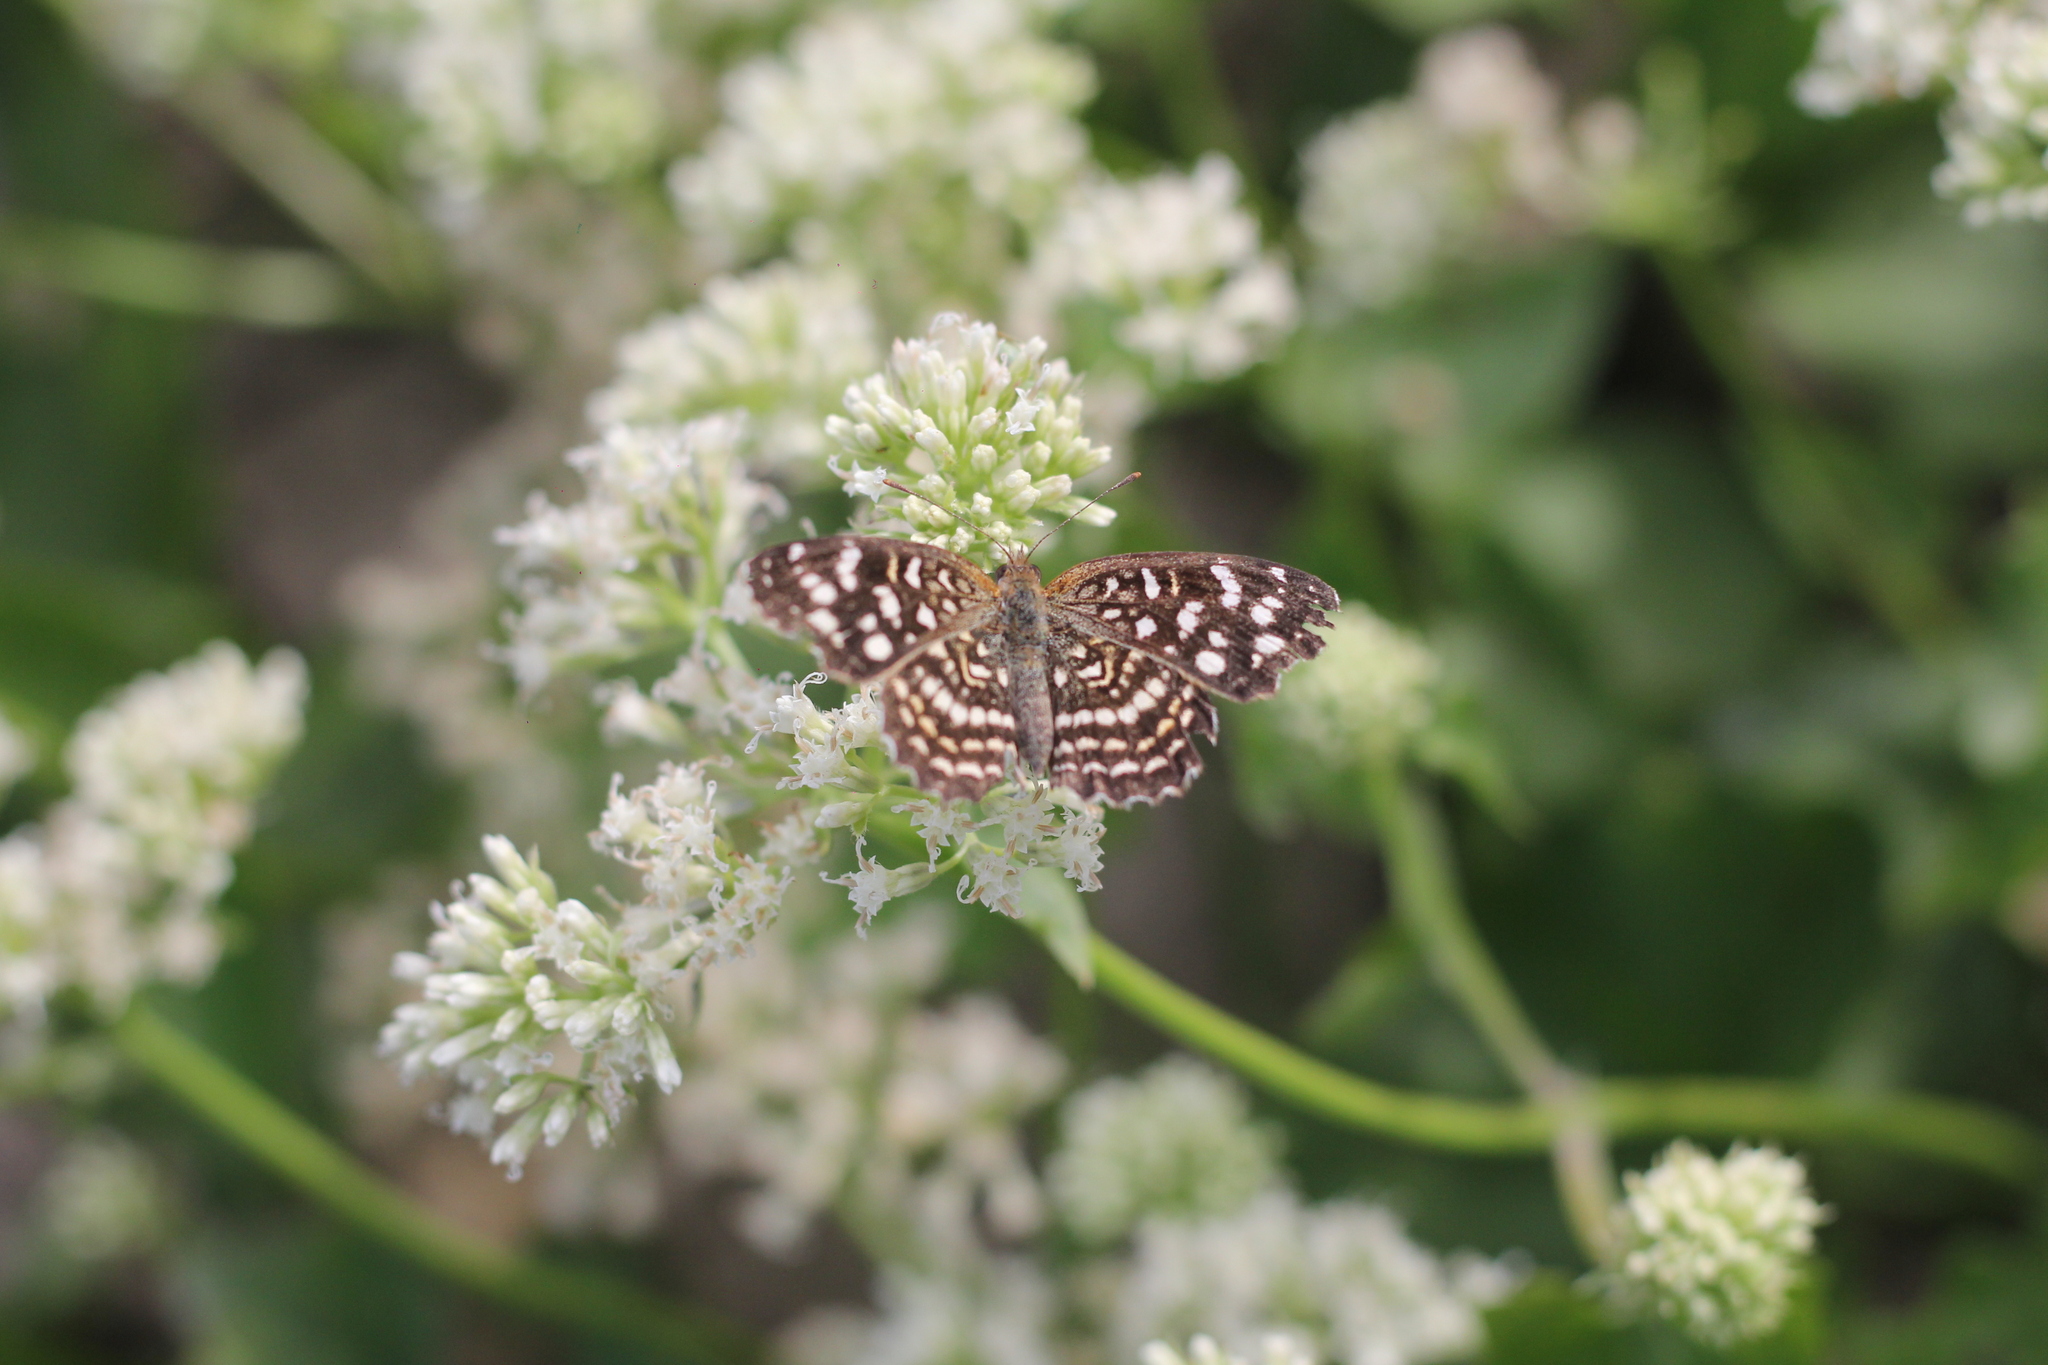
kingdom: Animalia
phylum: Arthropoda
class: Insecta
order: Lepidoptera
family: Nymphalidae
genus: Anthanassa
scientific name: Anthanassa hermas
